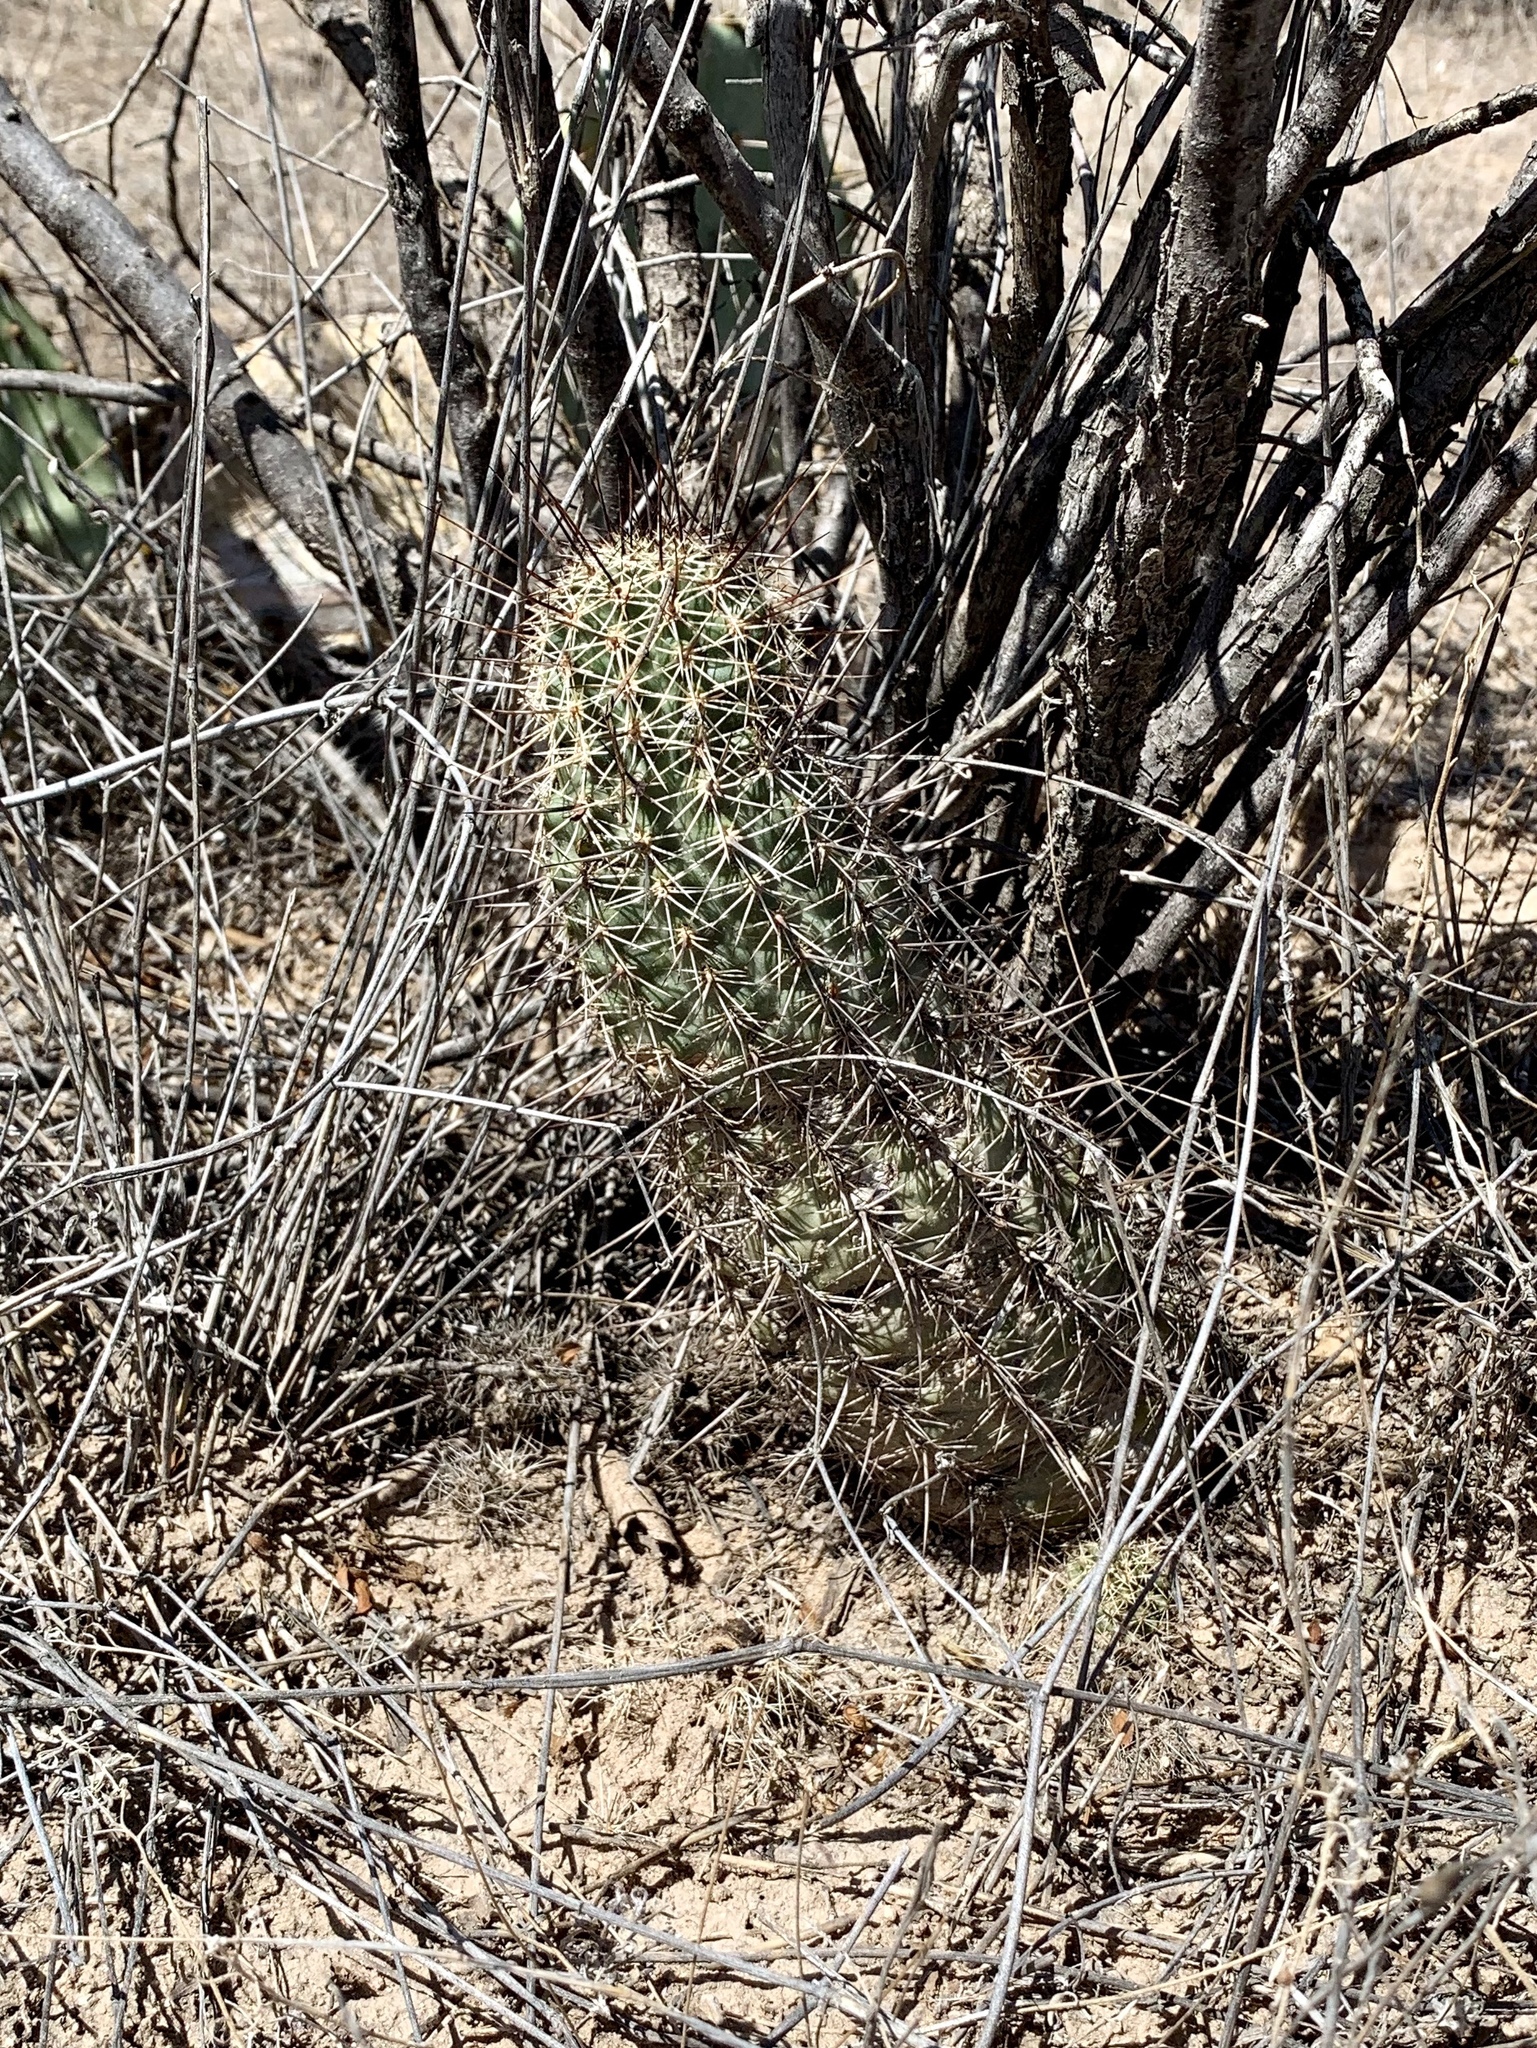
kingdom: Plantae
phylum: Tracheophyta
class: Magnoliopsida
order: Caryophyllales
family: Cactaceae
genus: Echinocereus
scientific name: Echinocereus fasciculatus
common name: Bundle hedgehog
